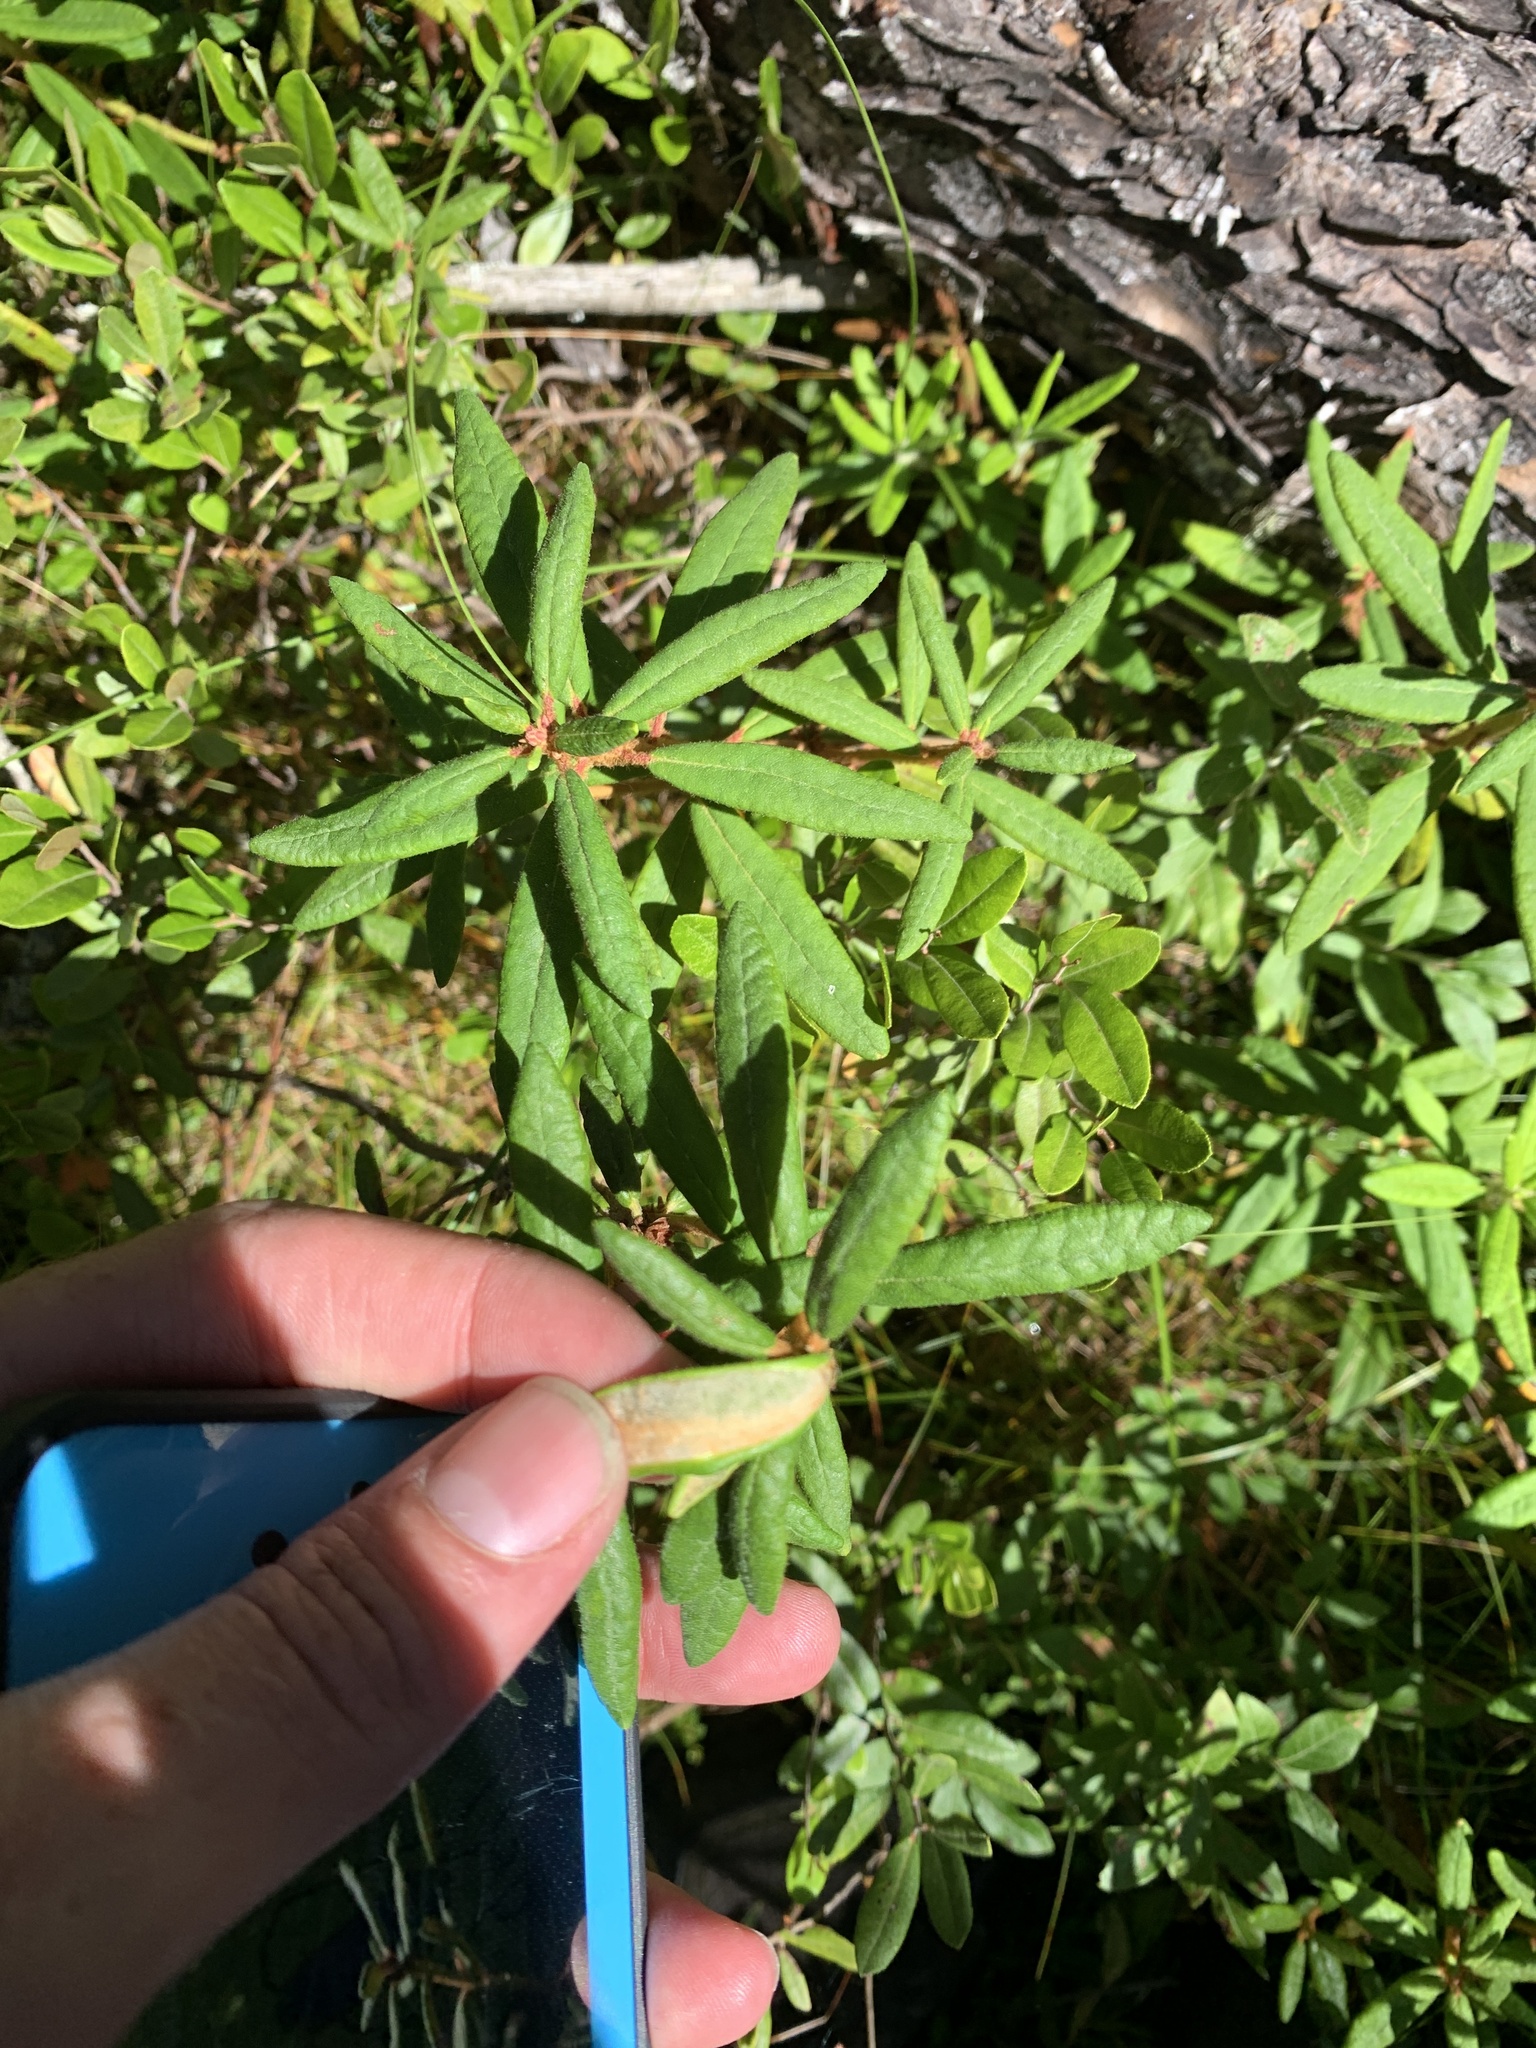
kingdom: Plantae
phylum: Tracheophyta
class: Magnoliopsida
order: Ericales
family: Ericaceae
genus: Rhododendron
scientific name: Rhododendron groenlandicum
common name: Bog labrador tea
